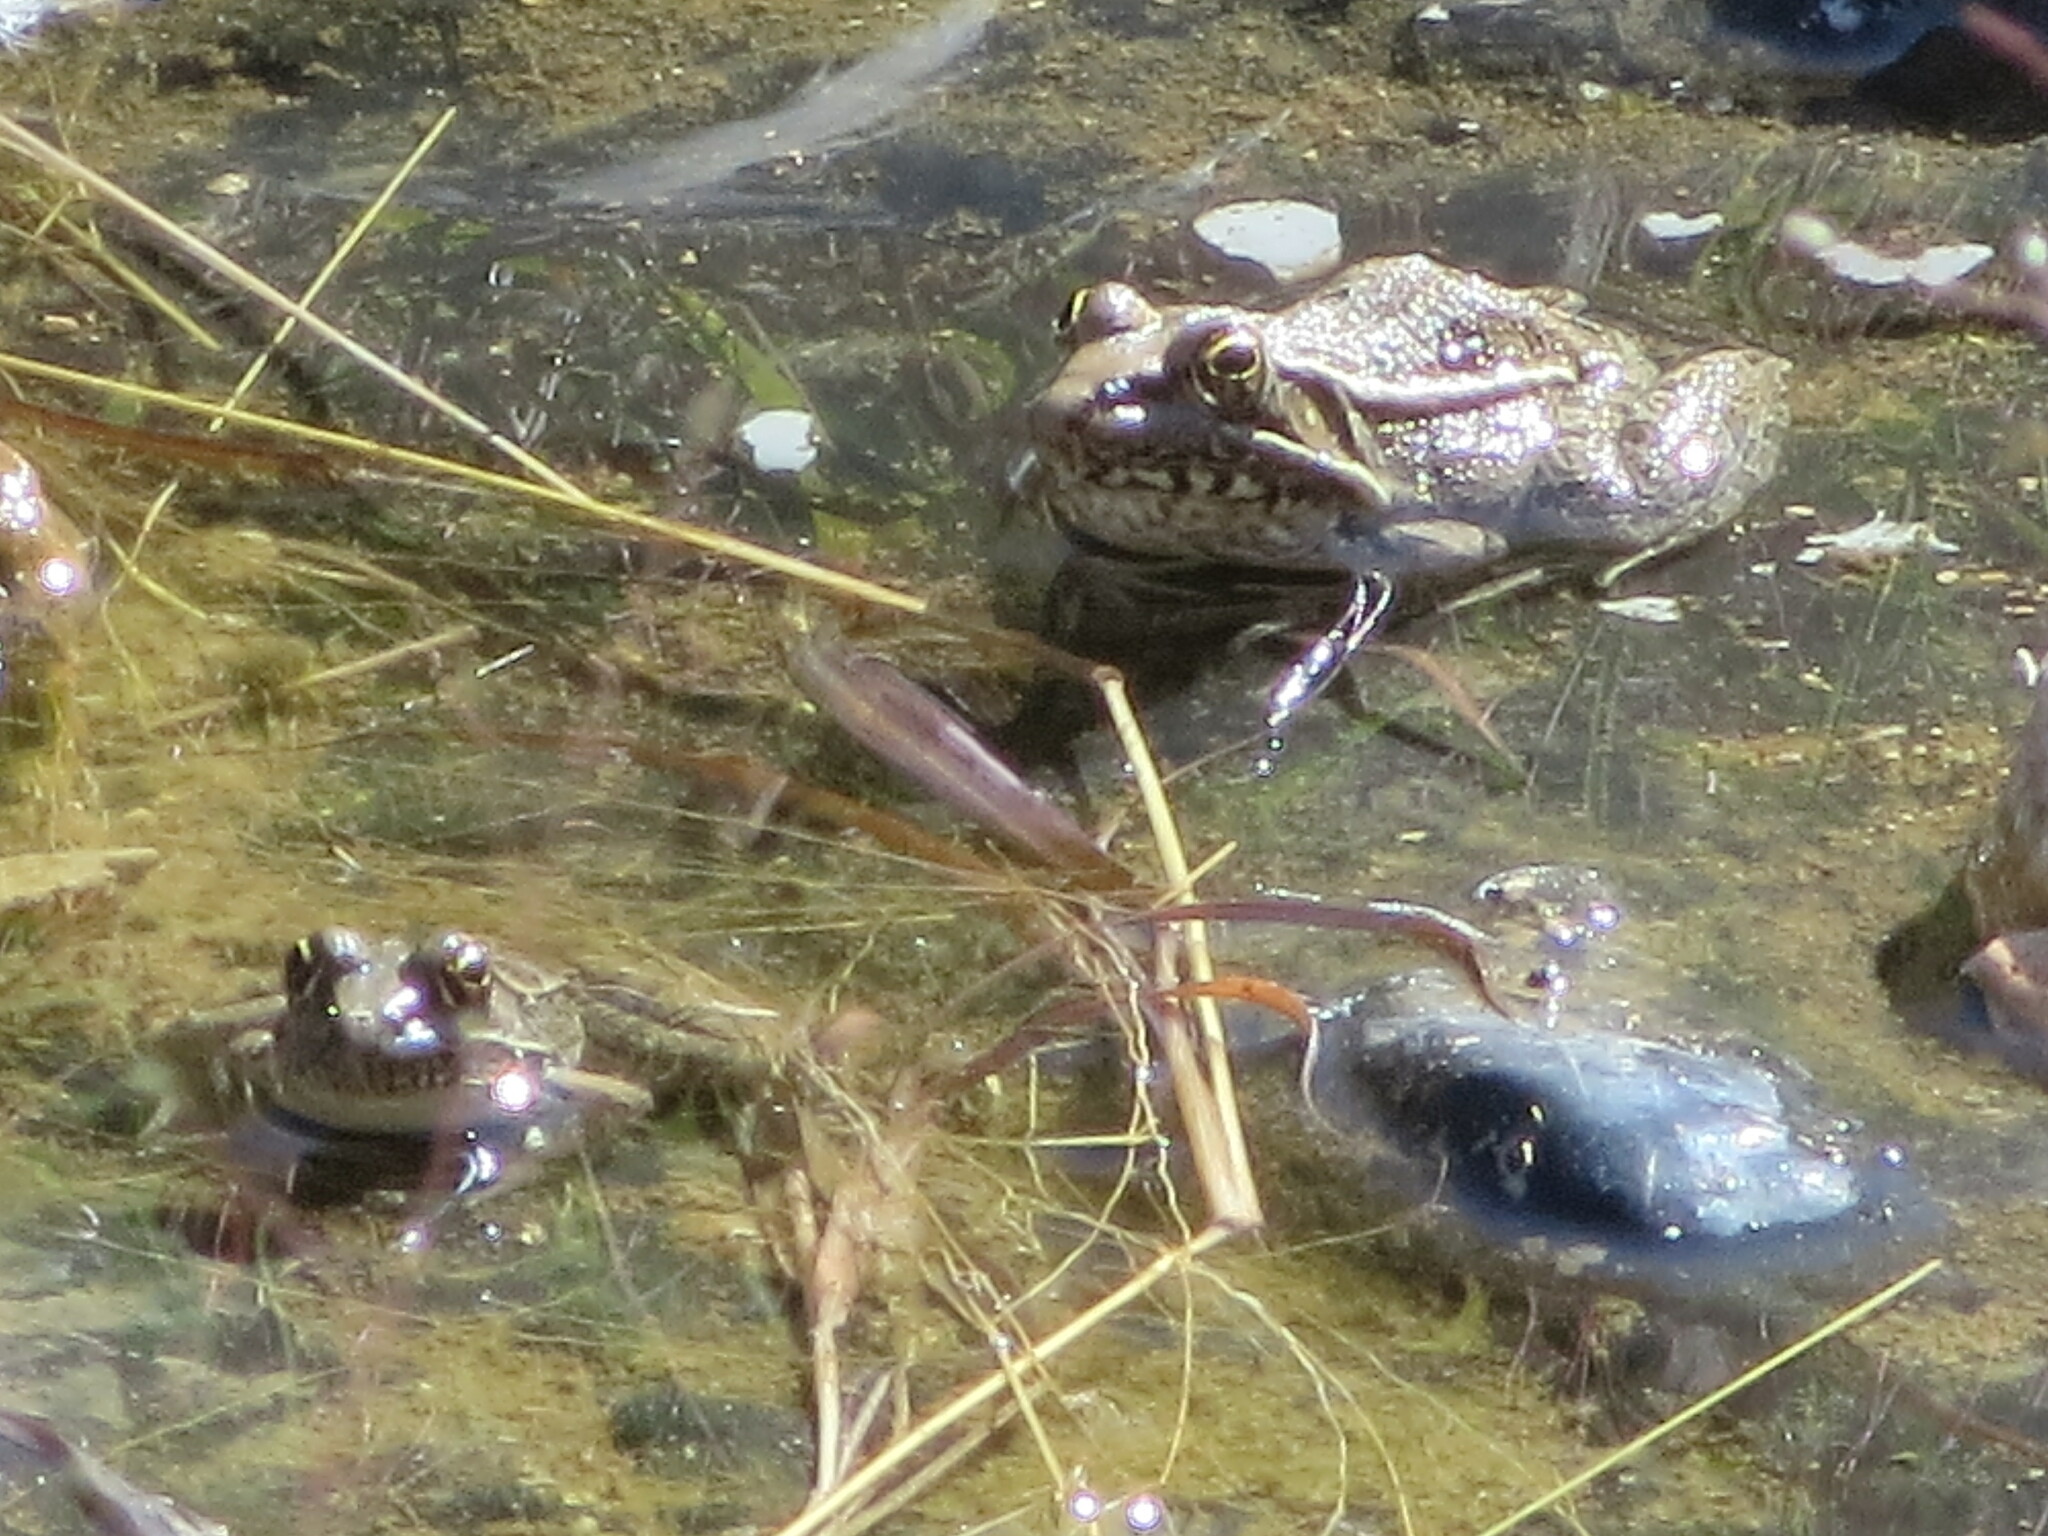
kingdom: Animalia
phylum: Chordata
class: Amphibia
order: Anura
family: Ranidae
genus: Lithobates
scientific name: Lithobates berlandieri
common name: Rio grande leopard frog
